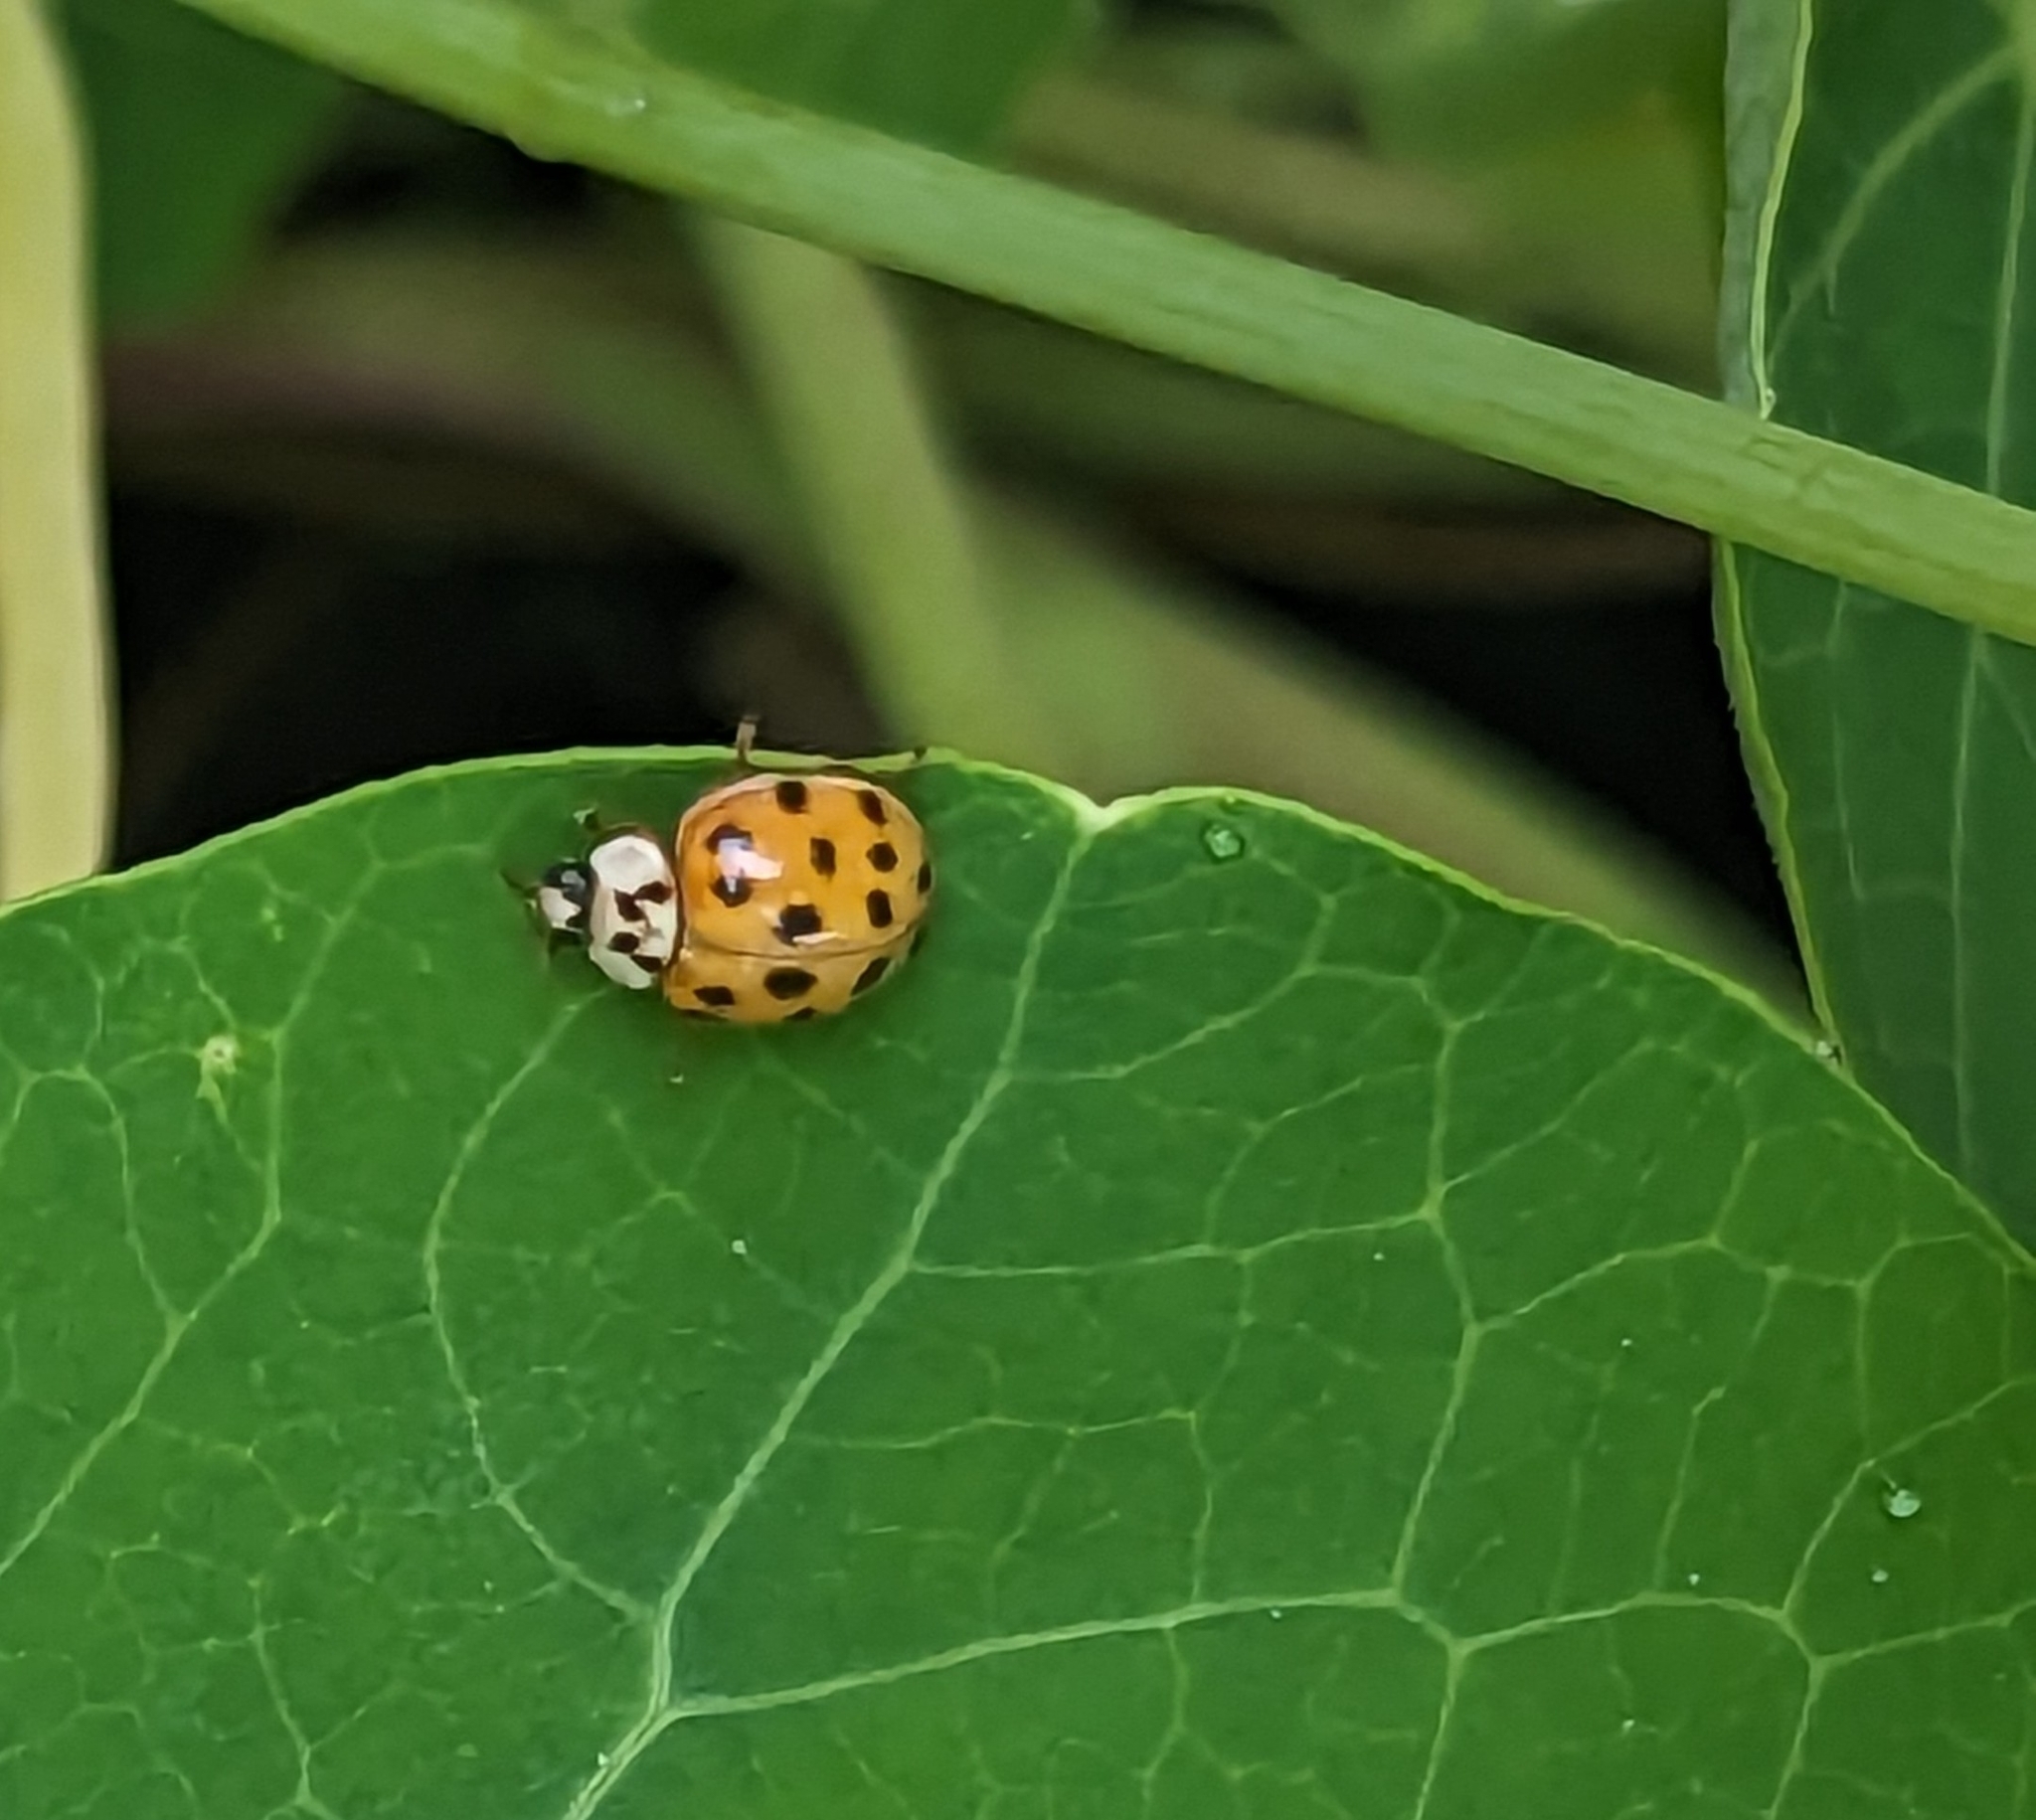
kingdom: Animalia
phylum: Arthropoda
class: Insecta
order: Coleoptera
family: Coccinellidae
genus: Harmonia
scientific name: Harmonia axyridis
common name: Harlequin ladybird
